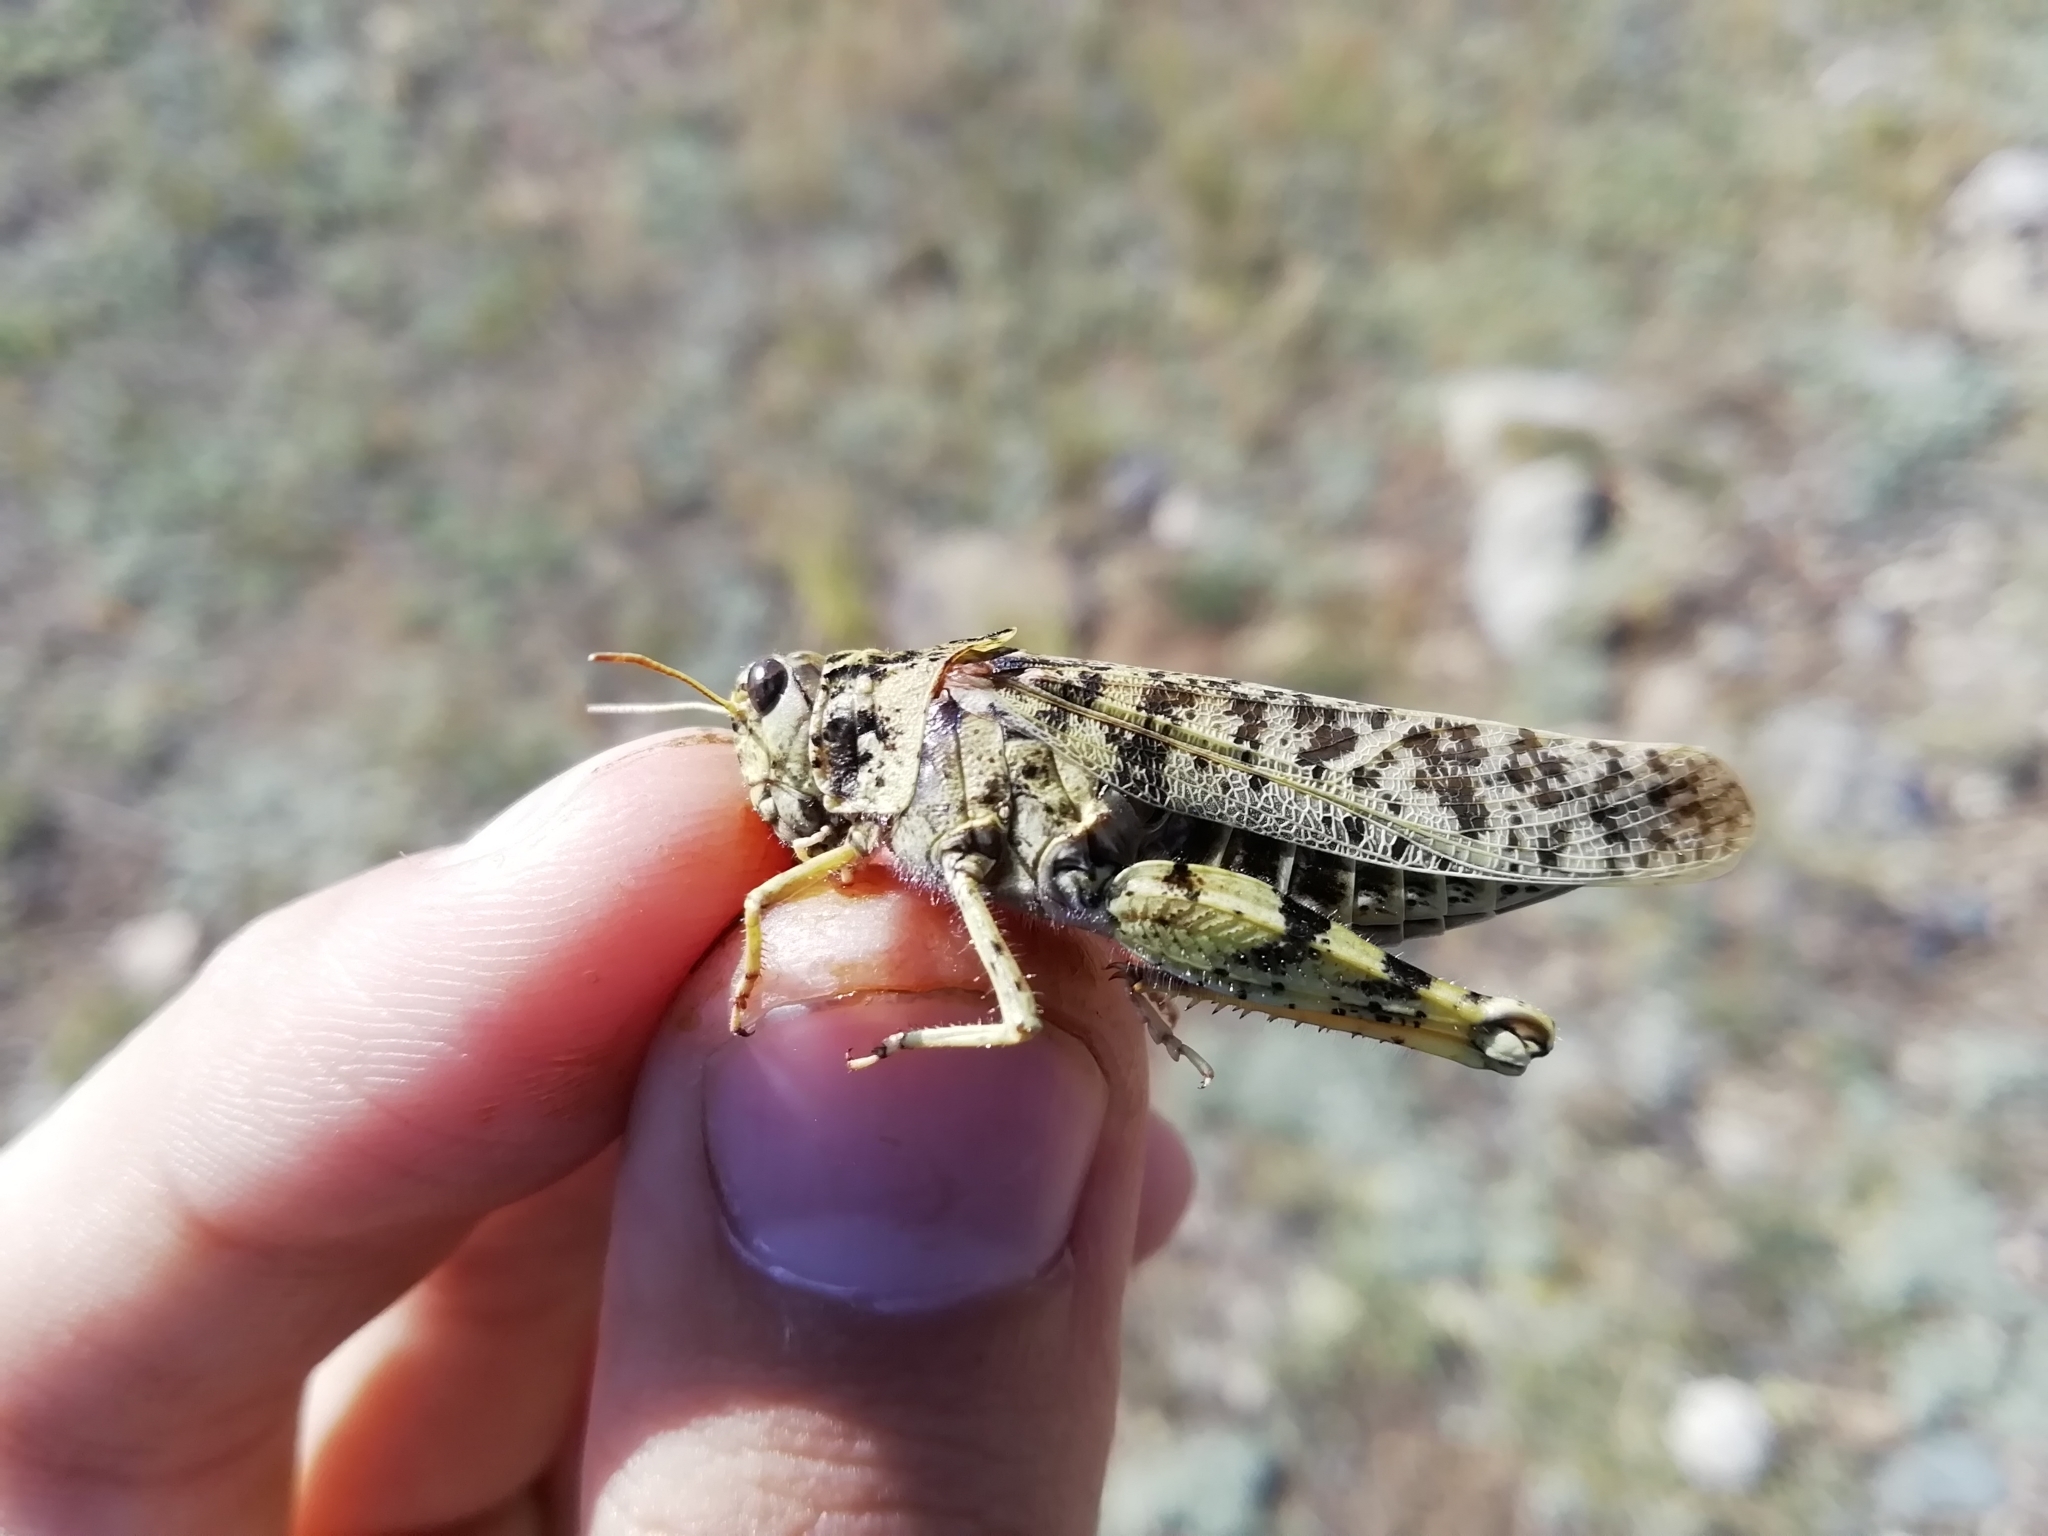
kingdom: Animalia
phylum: Arthropoda
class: Insecta
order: Orthoptera
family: Acrididae
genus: Angaracris
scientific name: Angaracris barabensis
